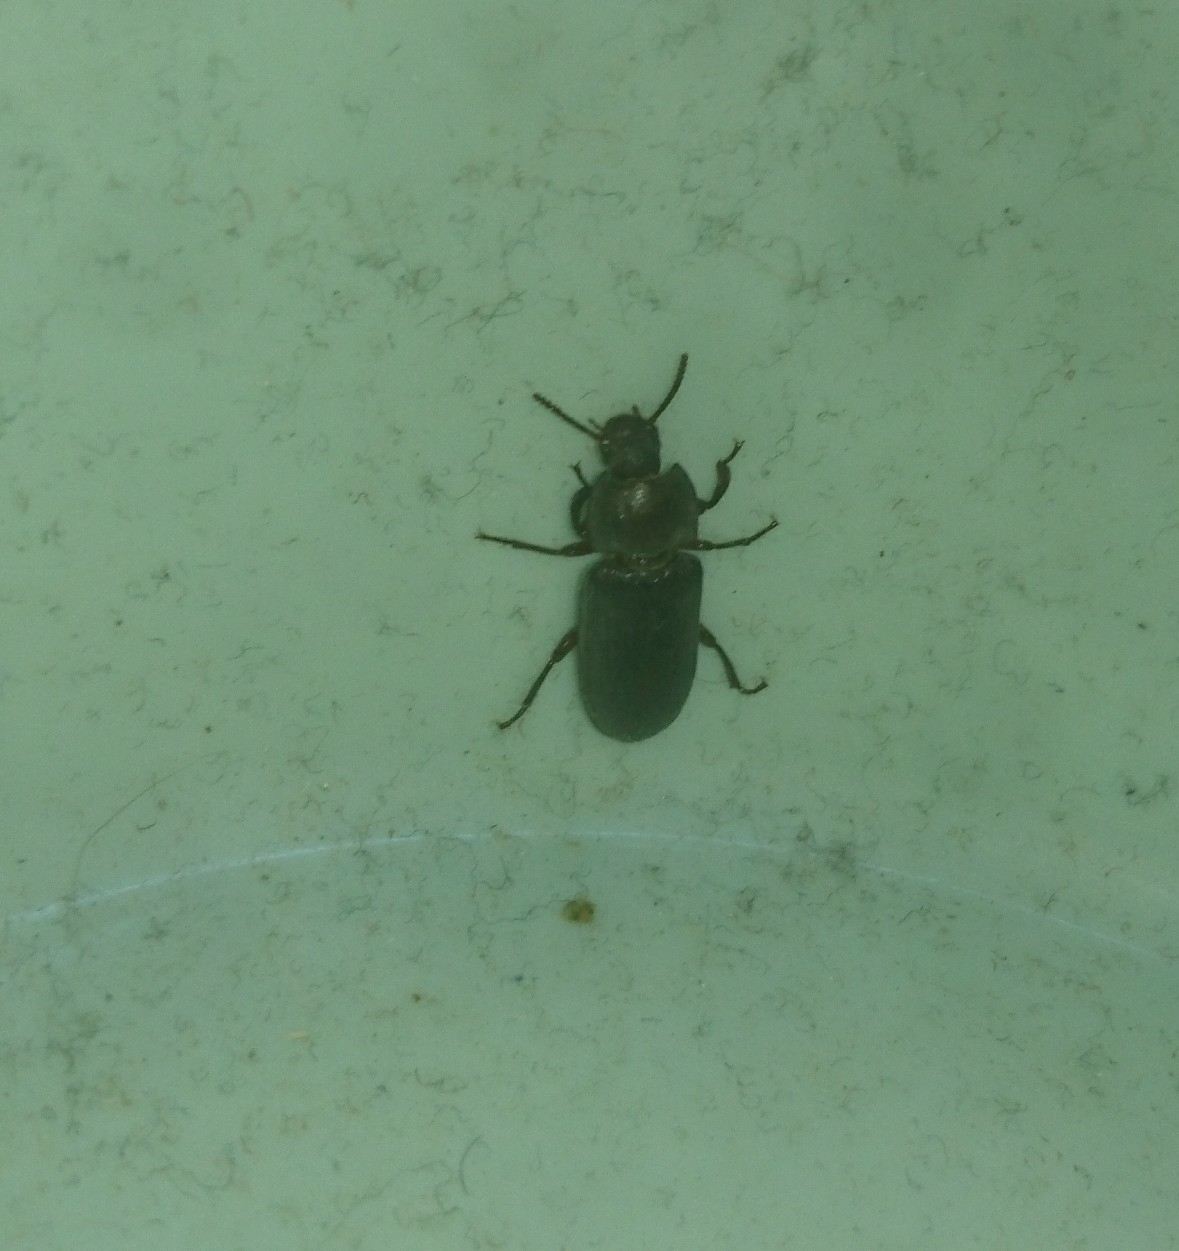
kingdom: Animalia
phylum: Arthropoda
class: Insecta
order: Coleoptera
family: Tenebrionidae
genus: Tenebrio
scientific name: Tenebrio molitor
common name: Hardback beetle
